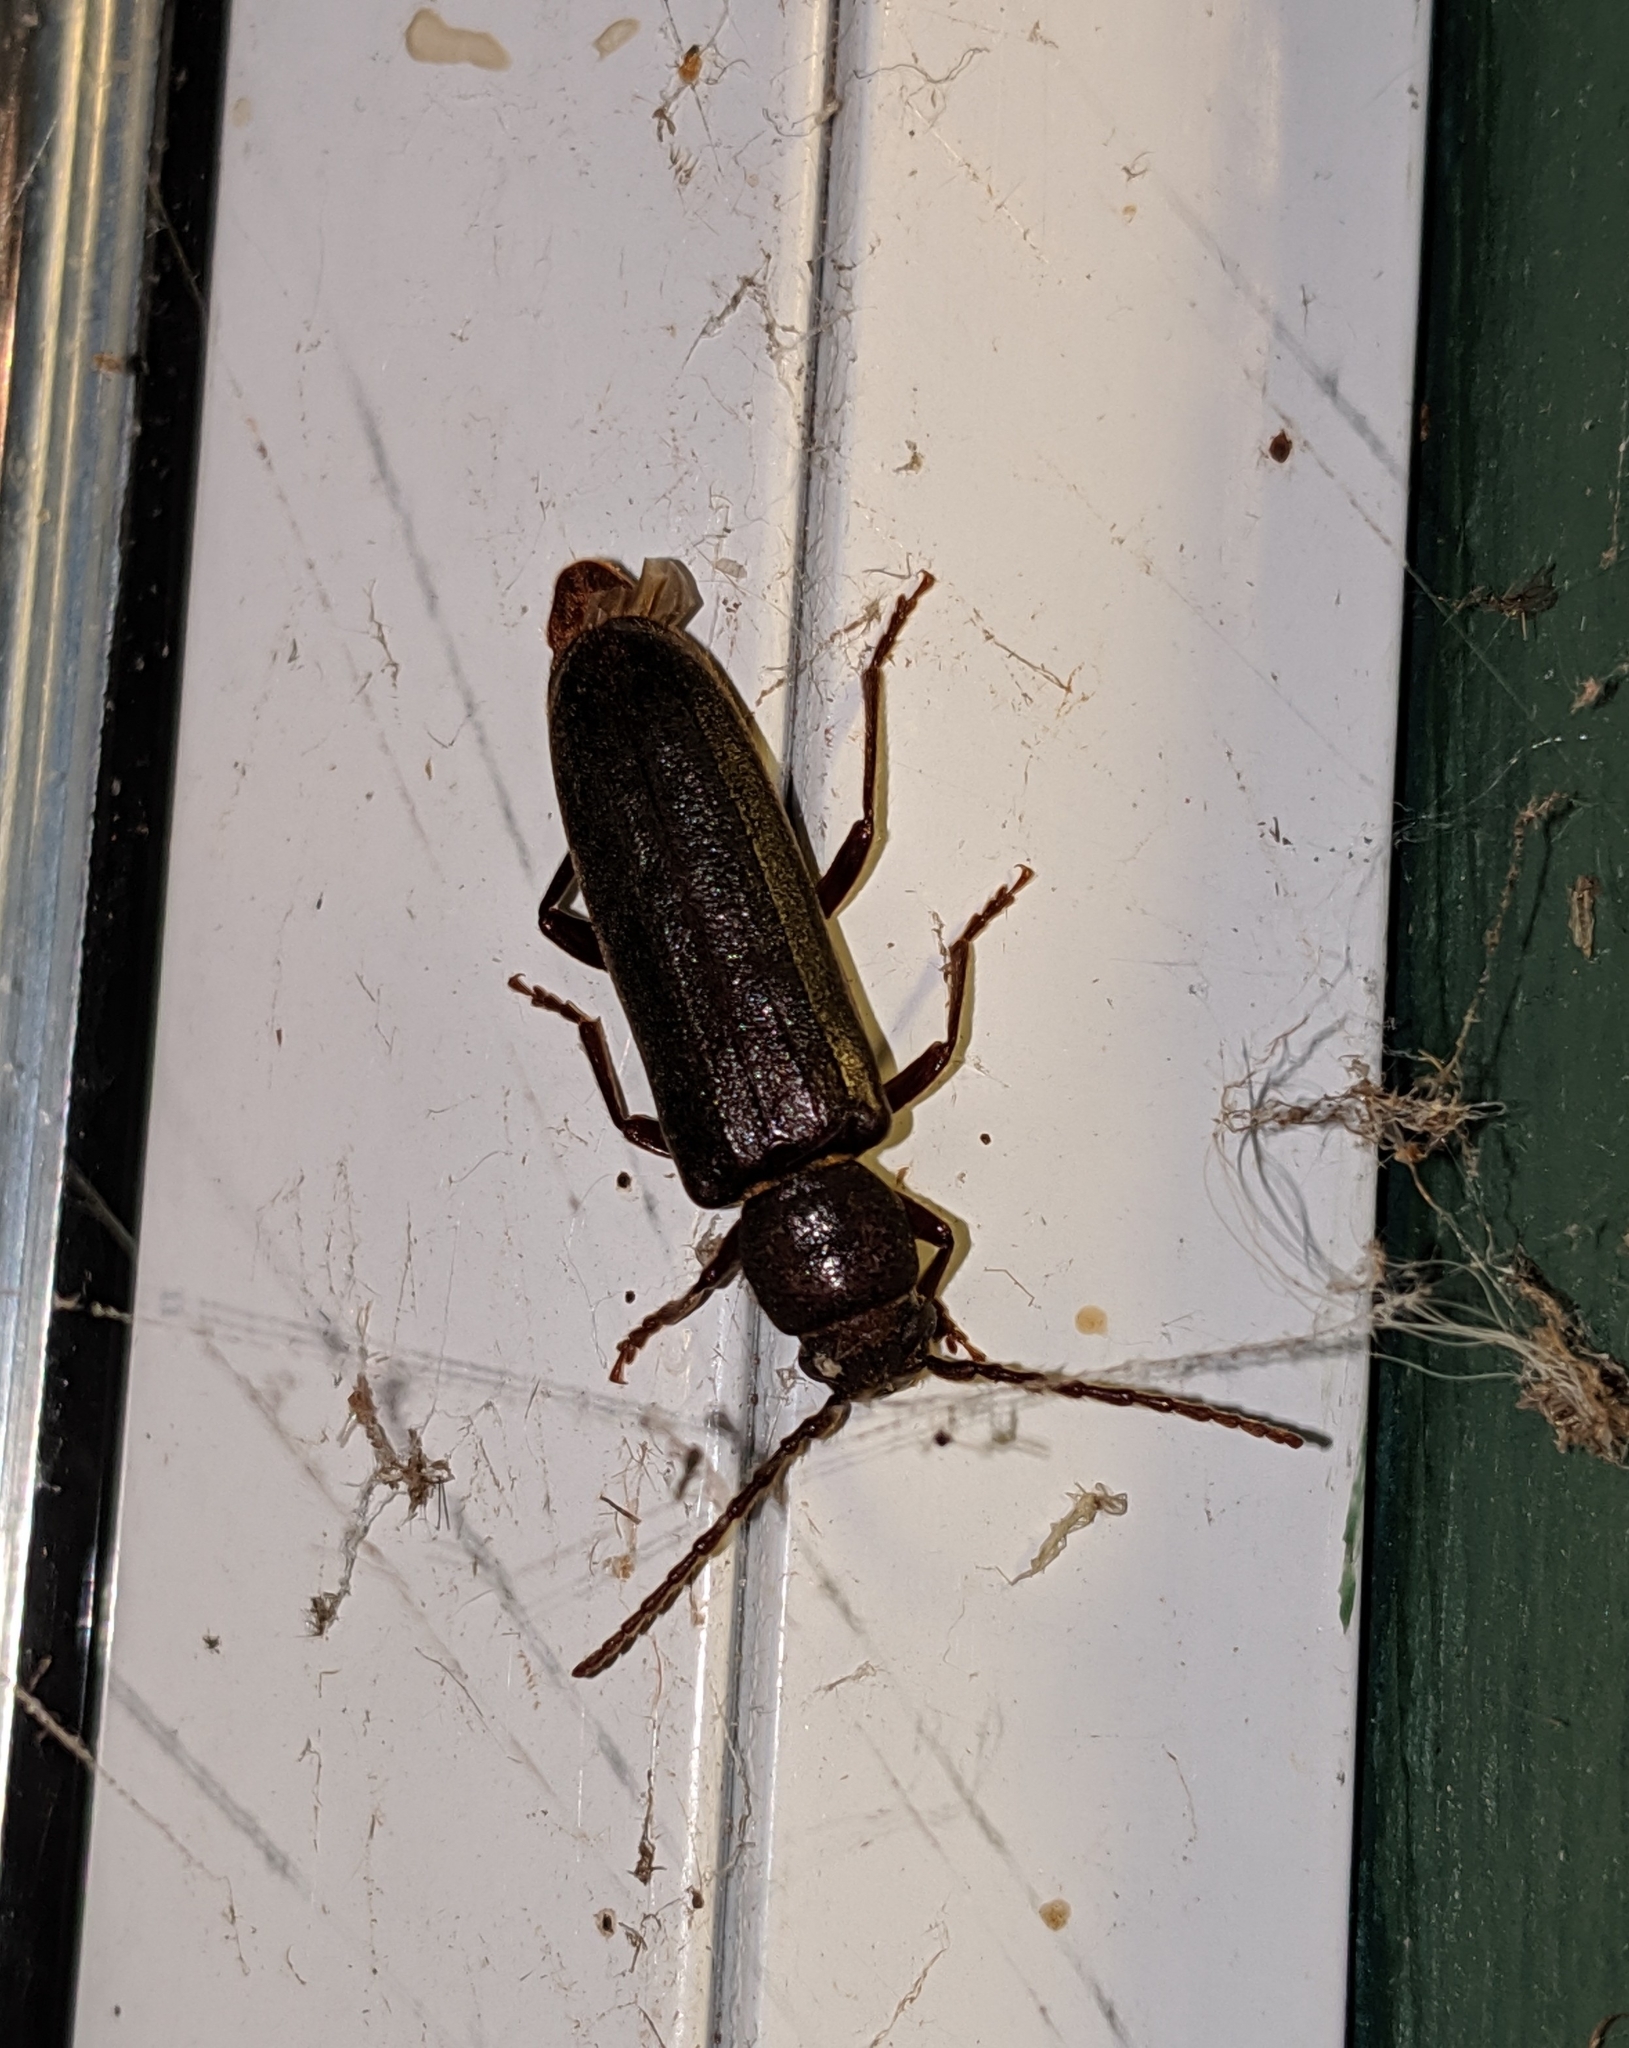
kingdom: Animalia
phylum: Arthropoda
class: Insecta
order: Coleoptera
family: Cerambycidae
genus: Megasemum
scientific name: Megasemum asperum
